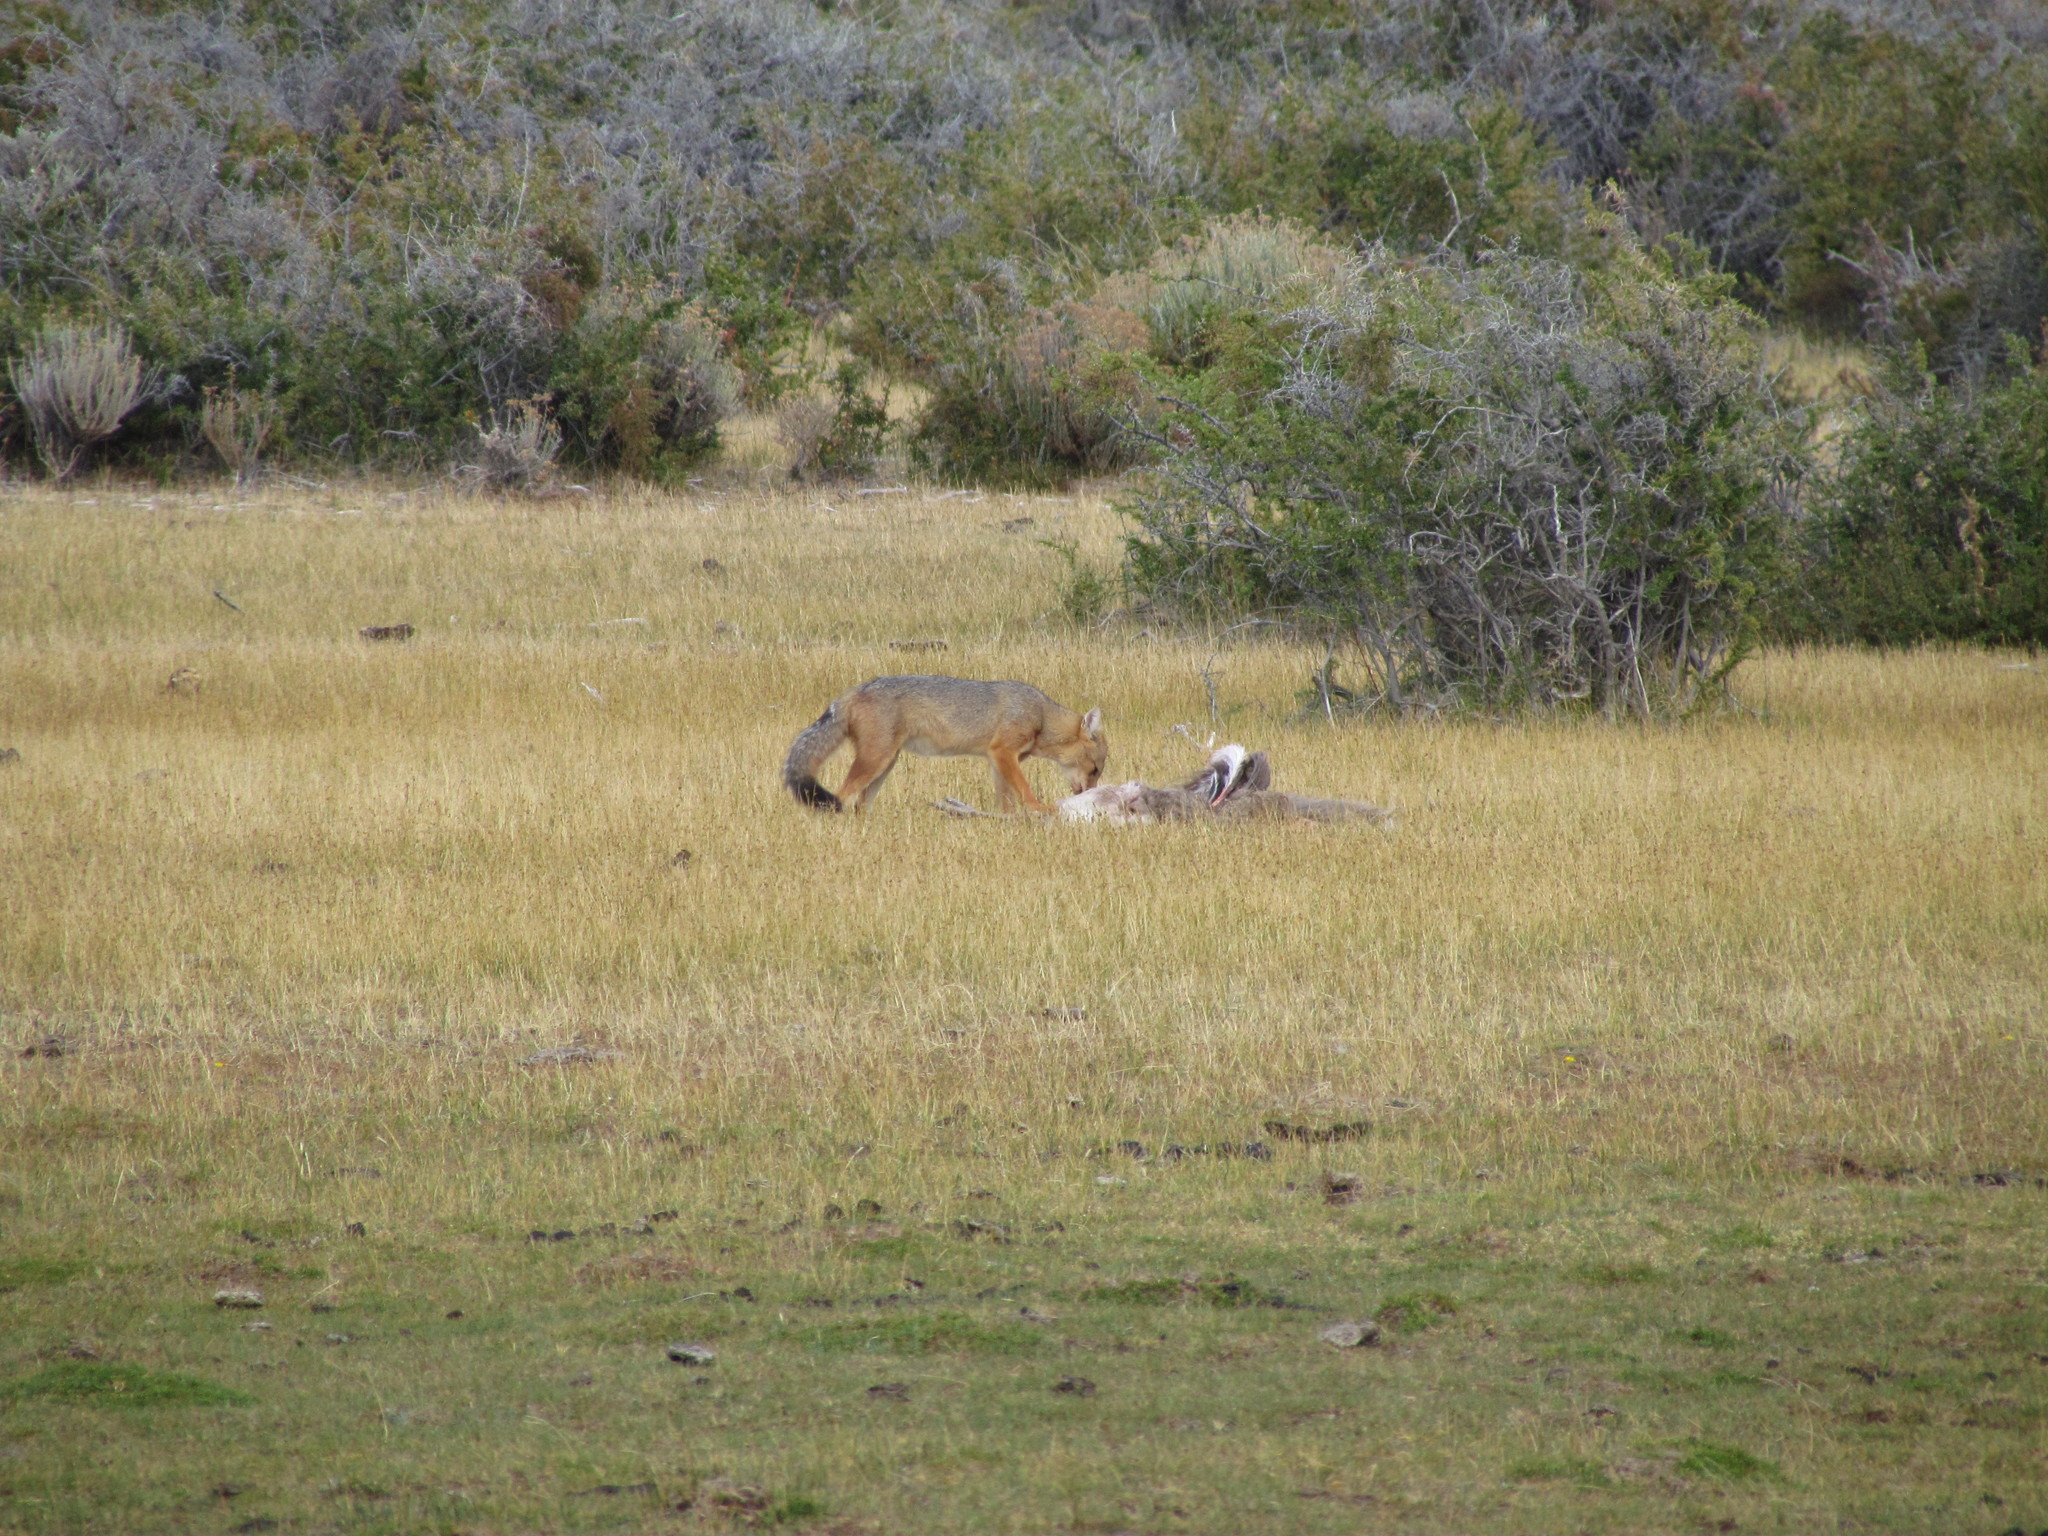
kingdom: Animalia
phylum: Chordata
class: Mammalia
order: Carnivora
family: Canidae
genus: Lycalopex
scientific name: Lycalopex culpaeus
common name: Culpeo
